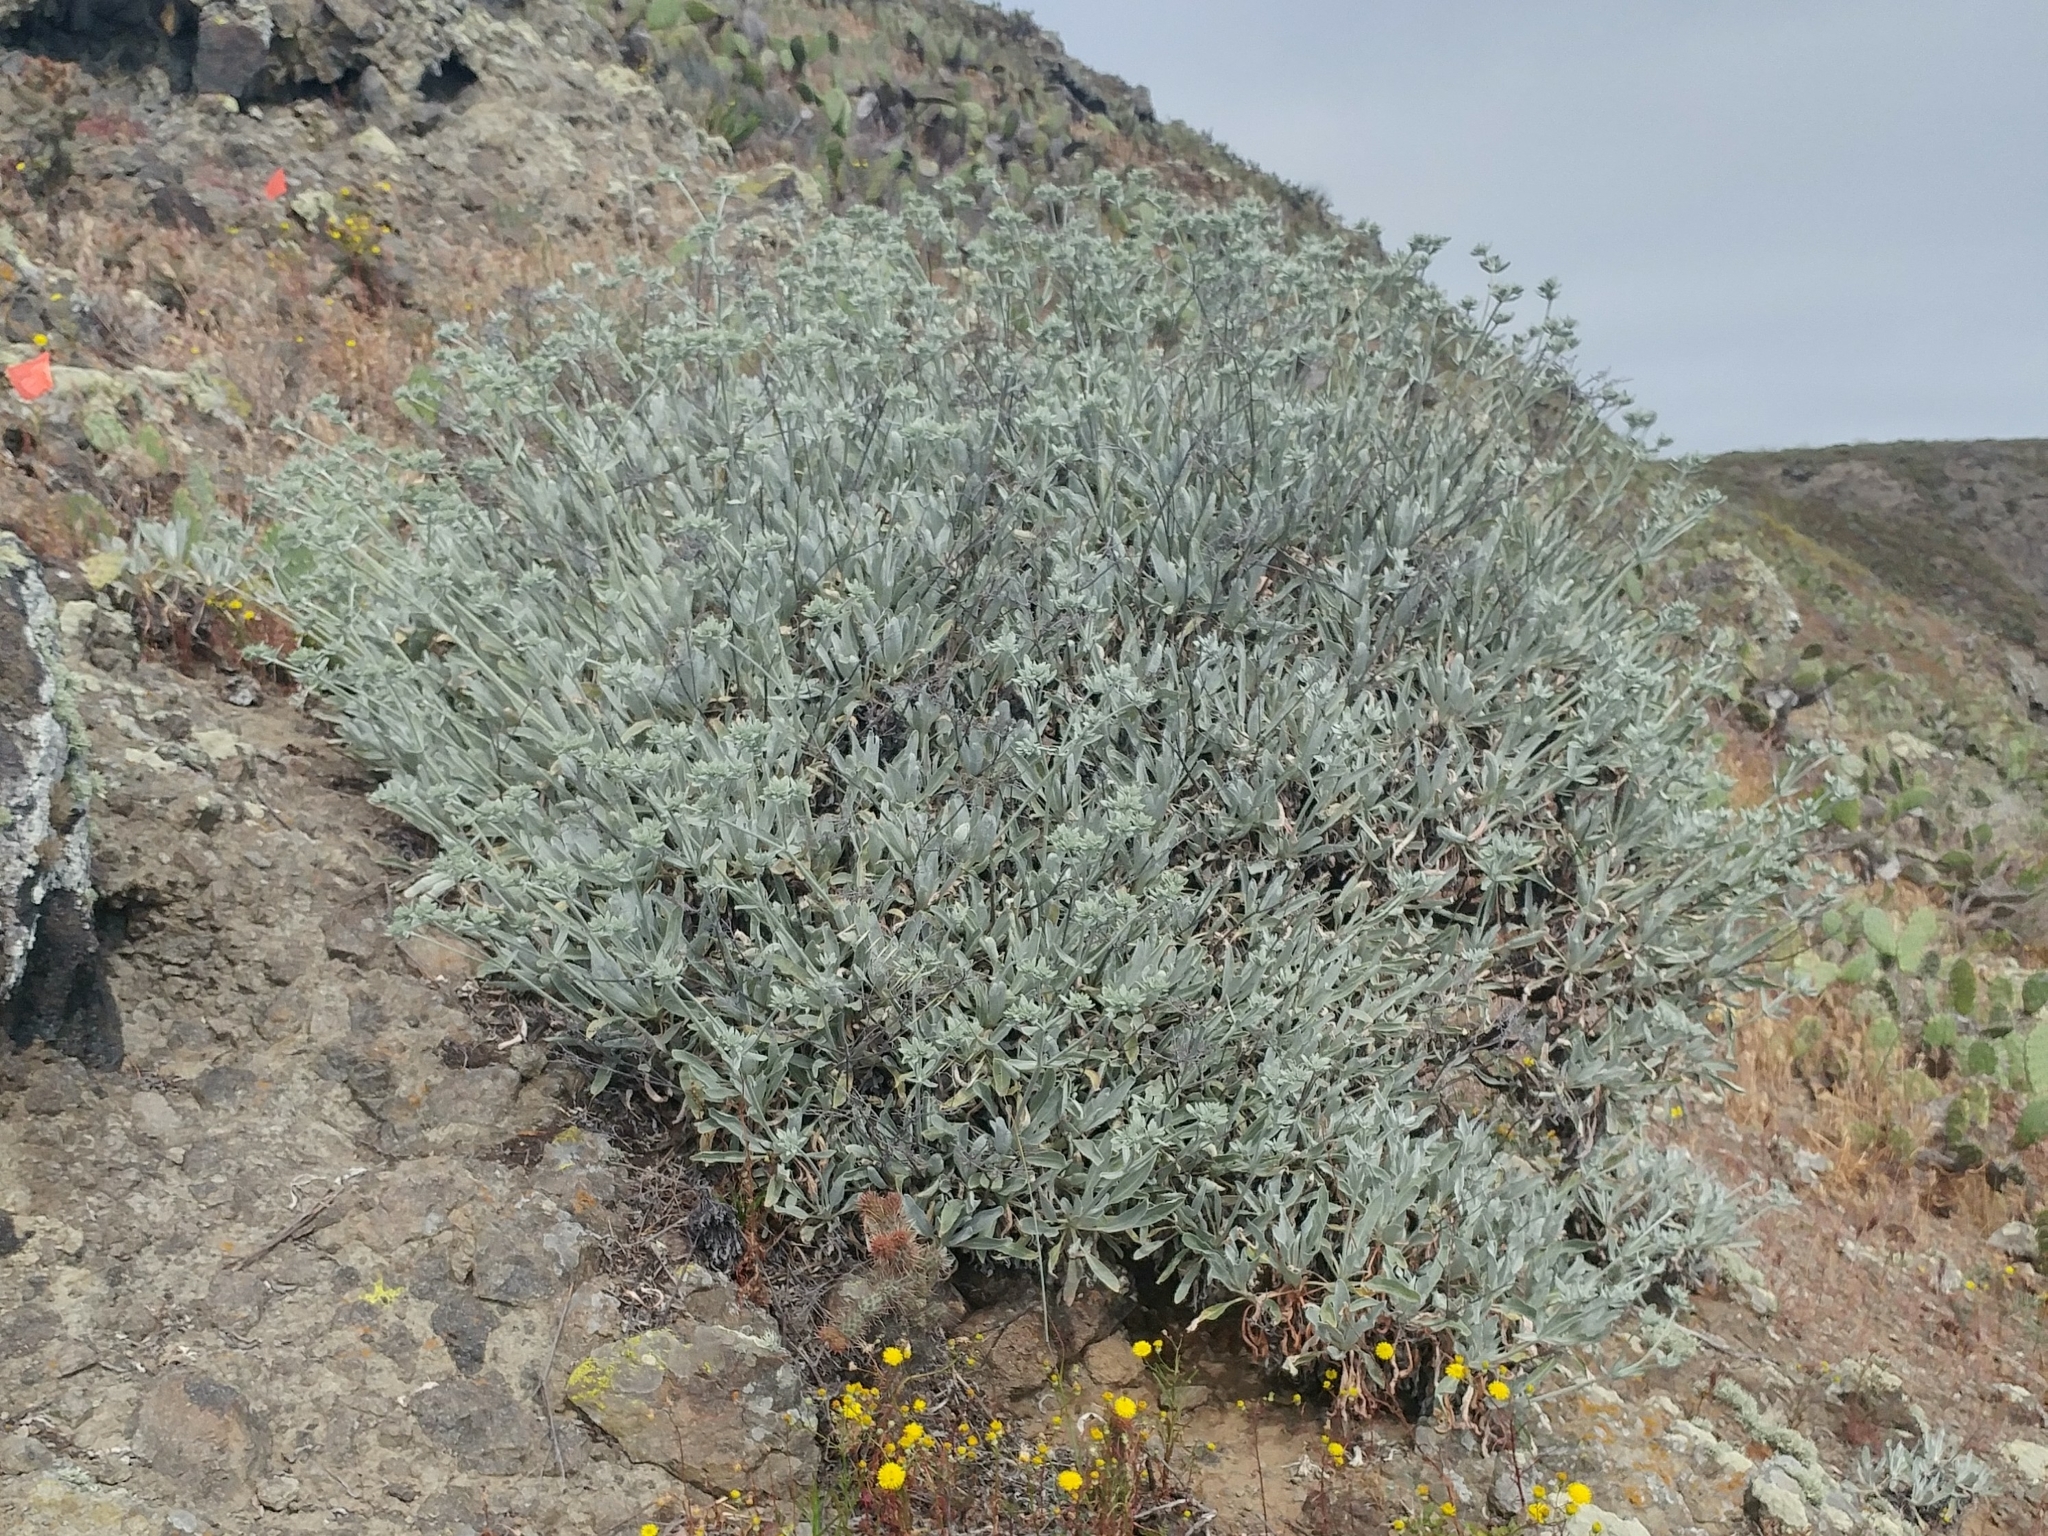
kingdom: Plantae
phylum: Tracheophyta
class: Magnoliopsida
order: Caryophyllales
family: Polygonaceae
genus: Eriogonum
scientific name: Eriogonum giganteum
